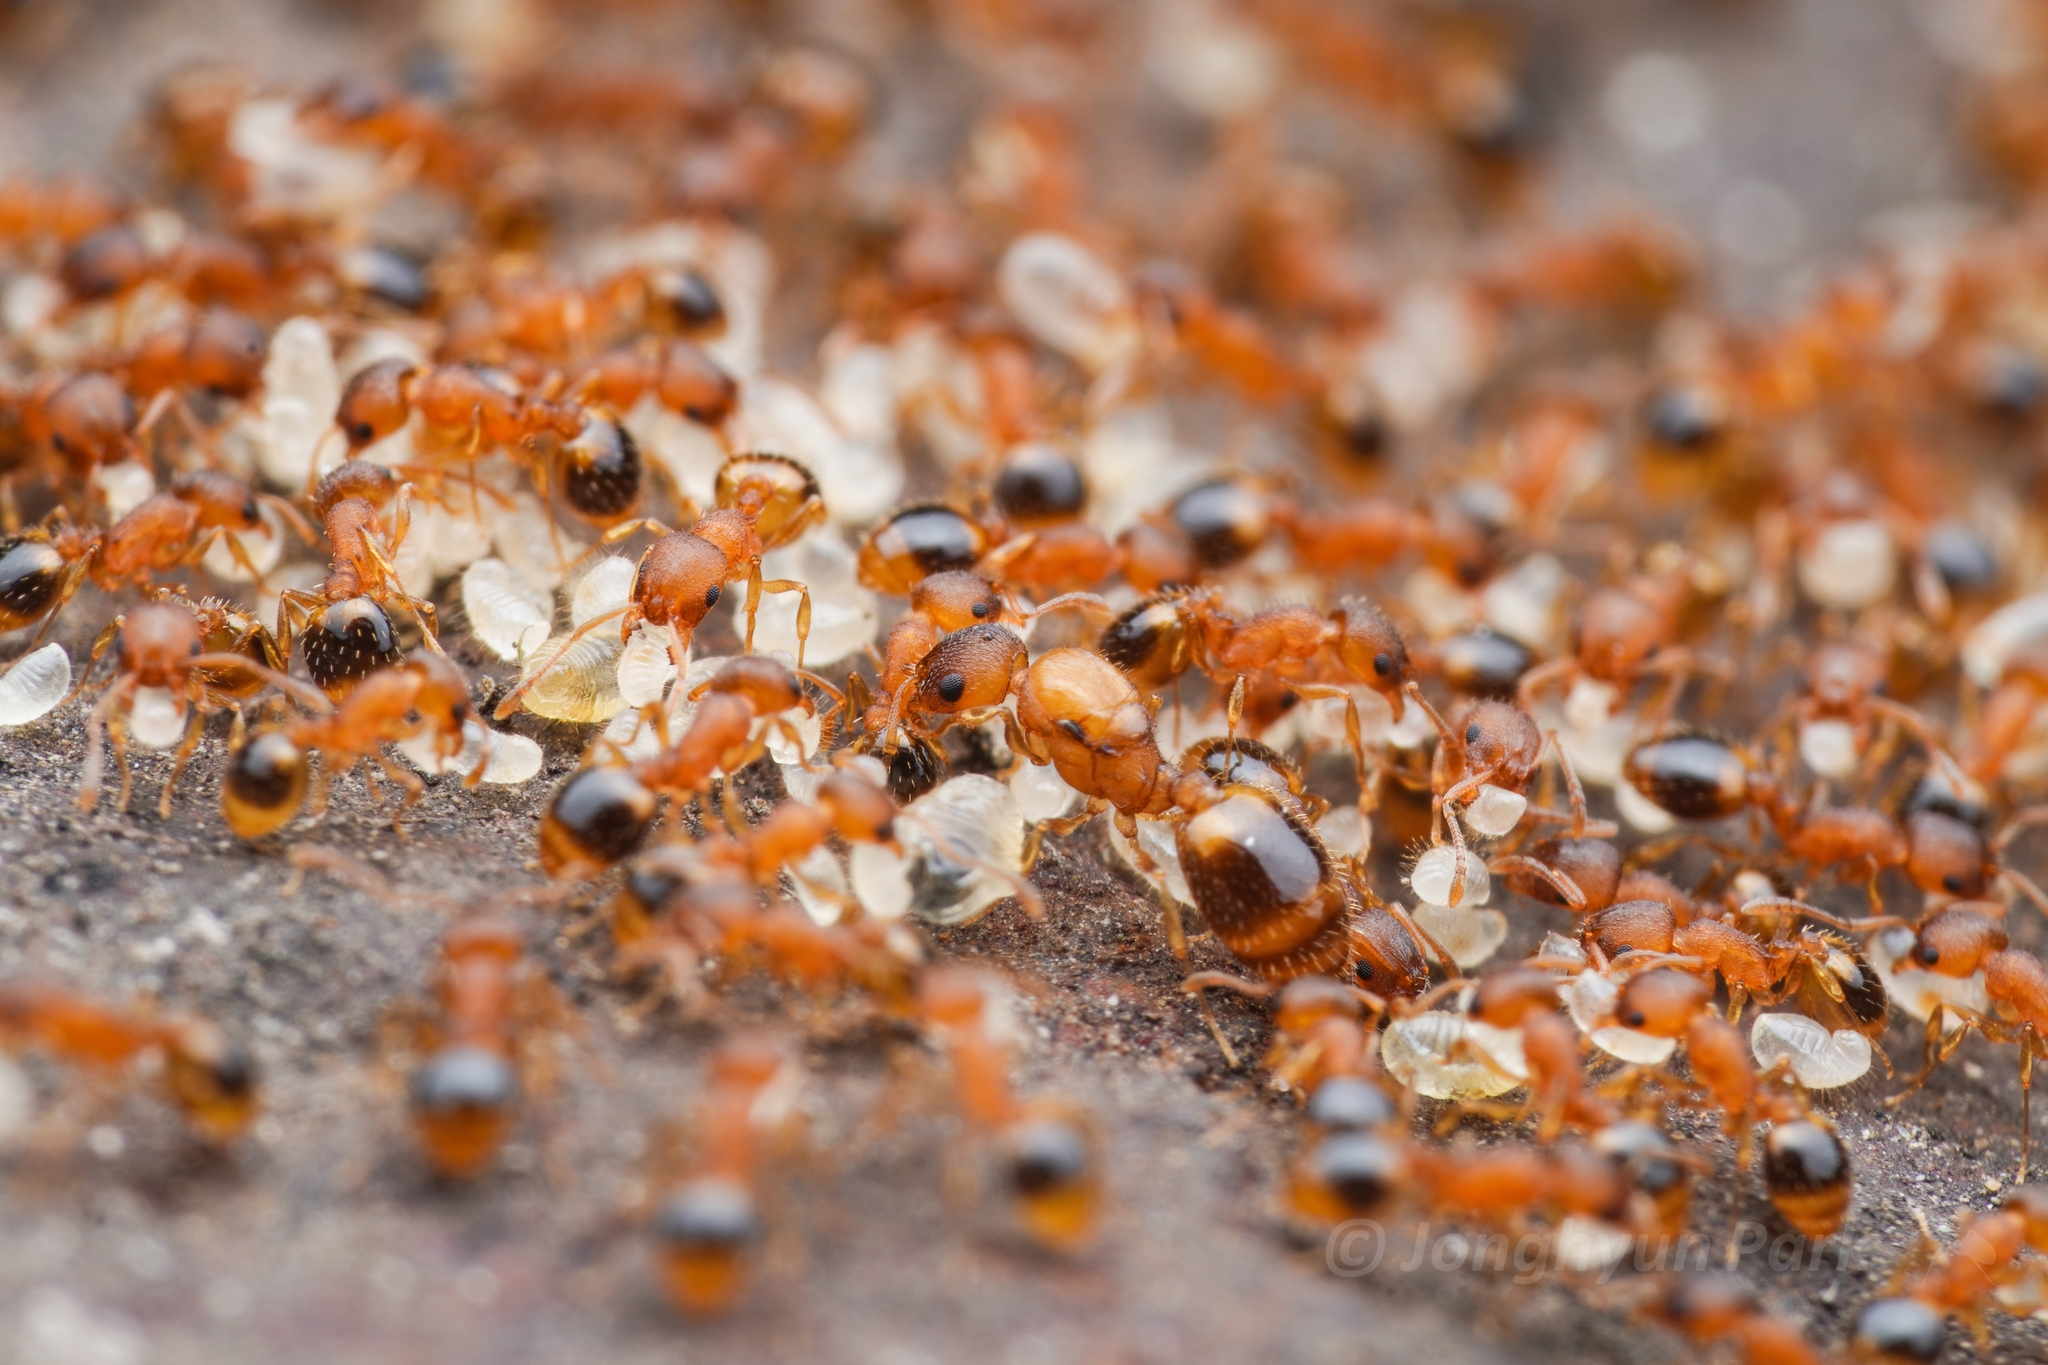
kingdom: Animalia
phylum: Arthropoda
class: Insecta
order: Hymenoptera
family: Formicidae
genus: Temnothorax
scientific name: Temnothorax
